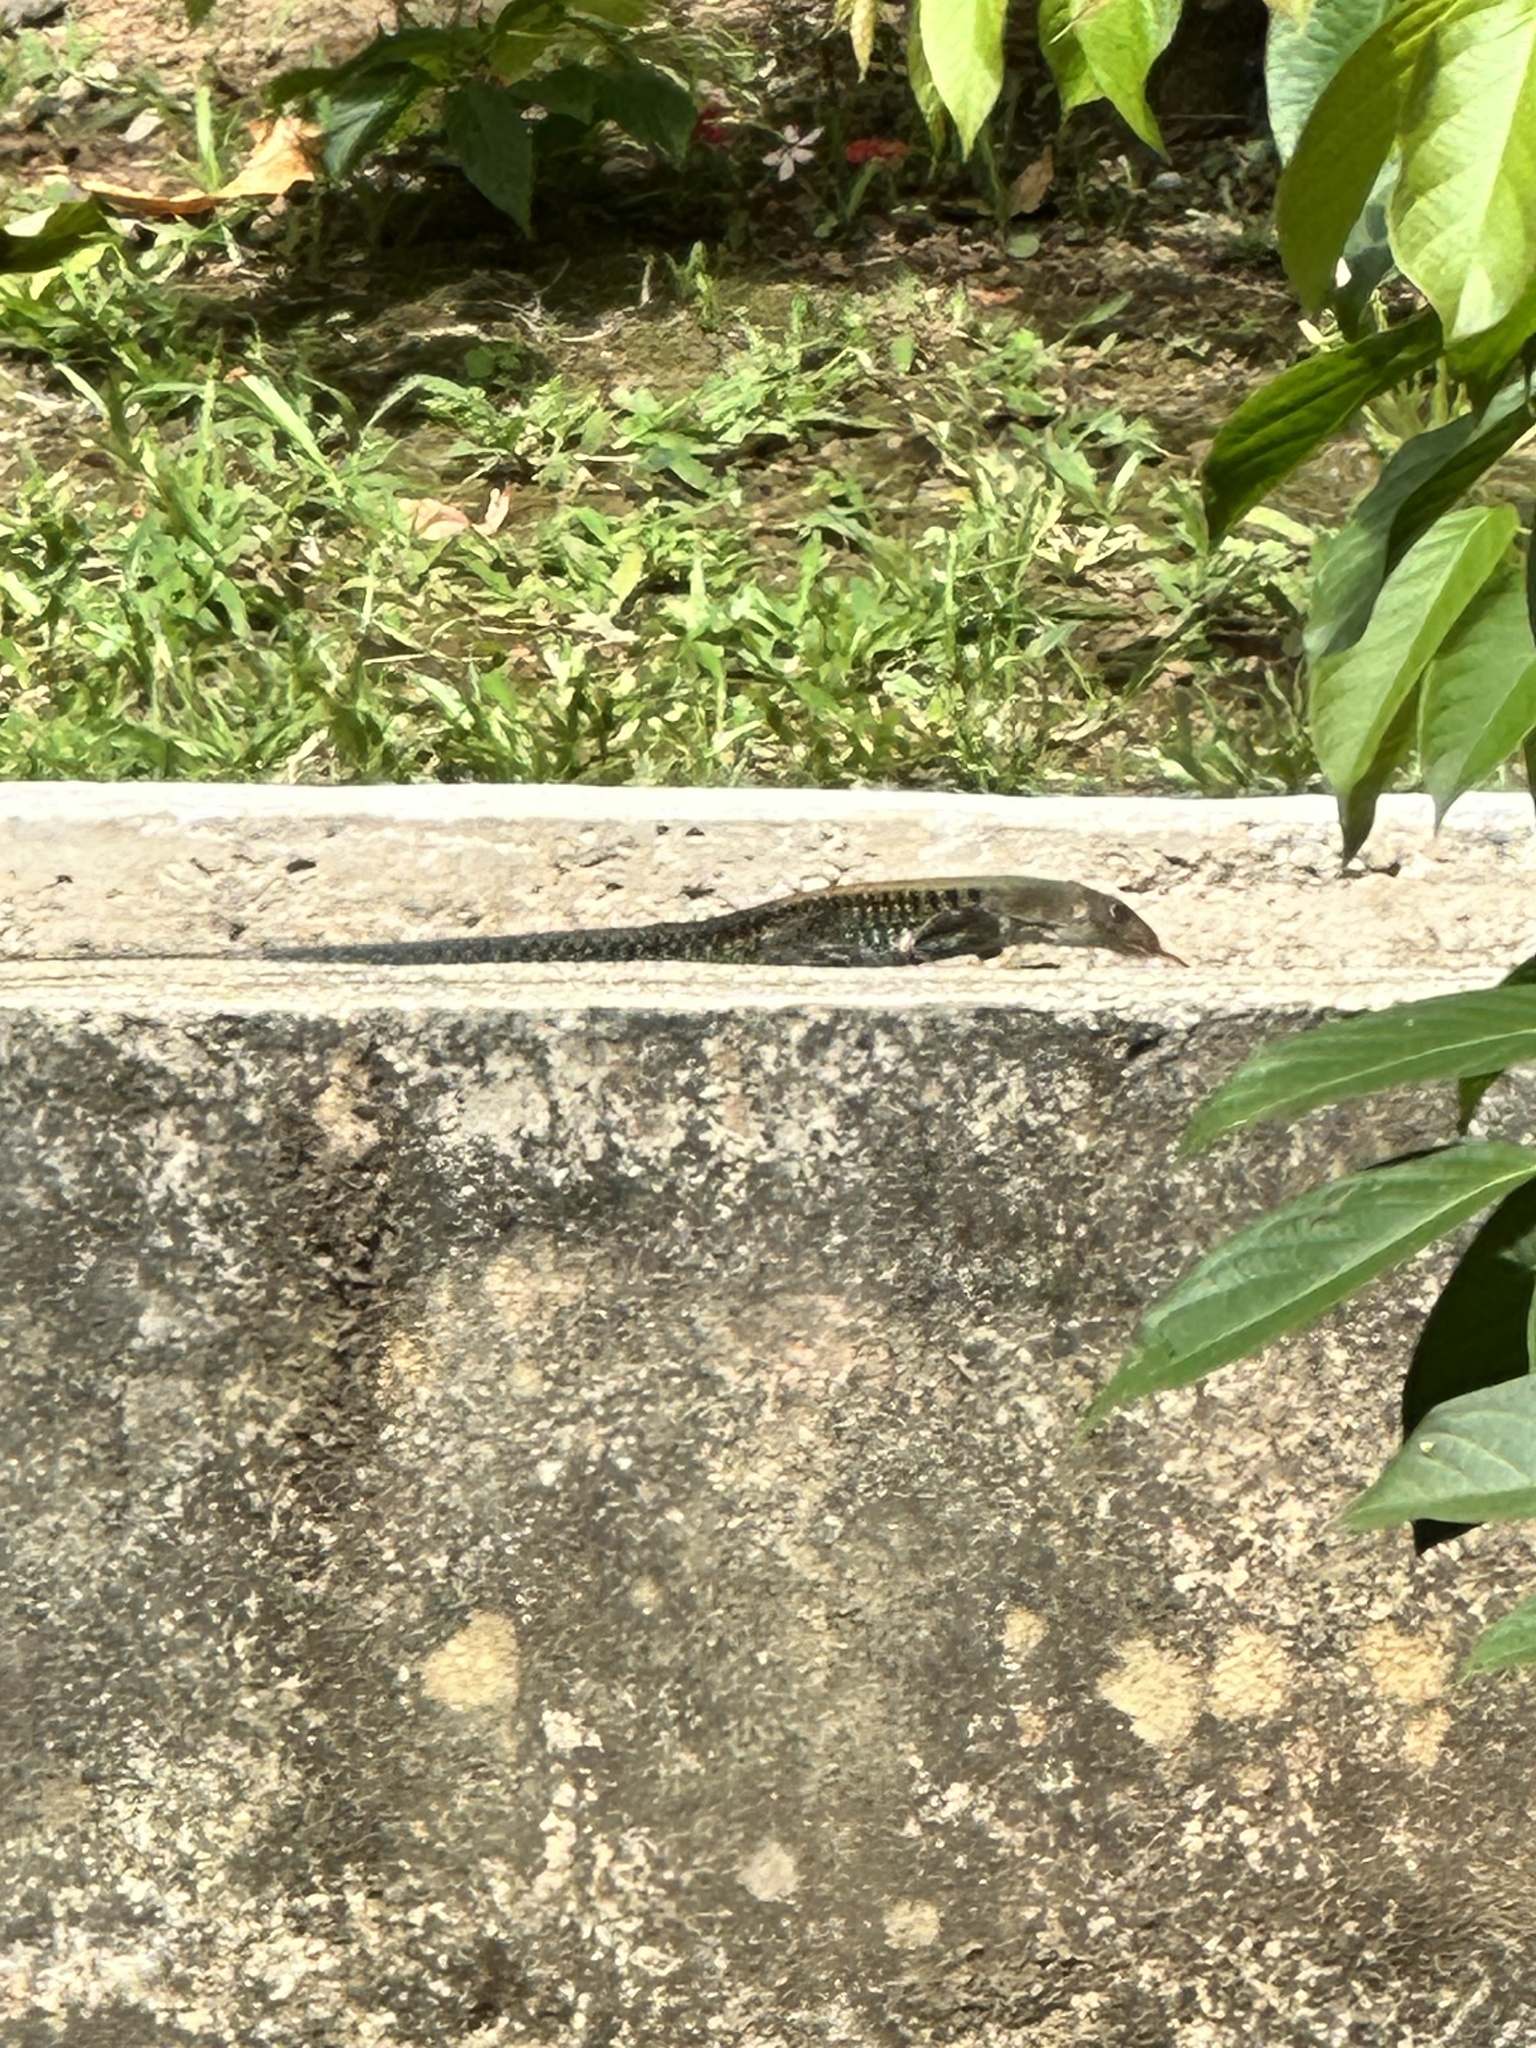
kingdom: Animalia
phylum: Chordata
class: Squamata
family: Teiidae
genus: Pholidoscelis
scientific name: Pholidoscelis exsul
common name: Common puerto rican ameiva
